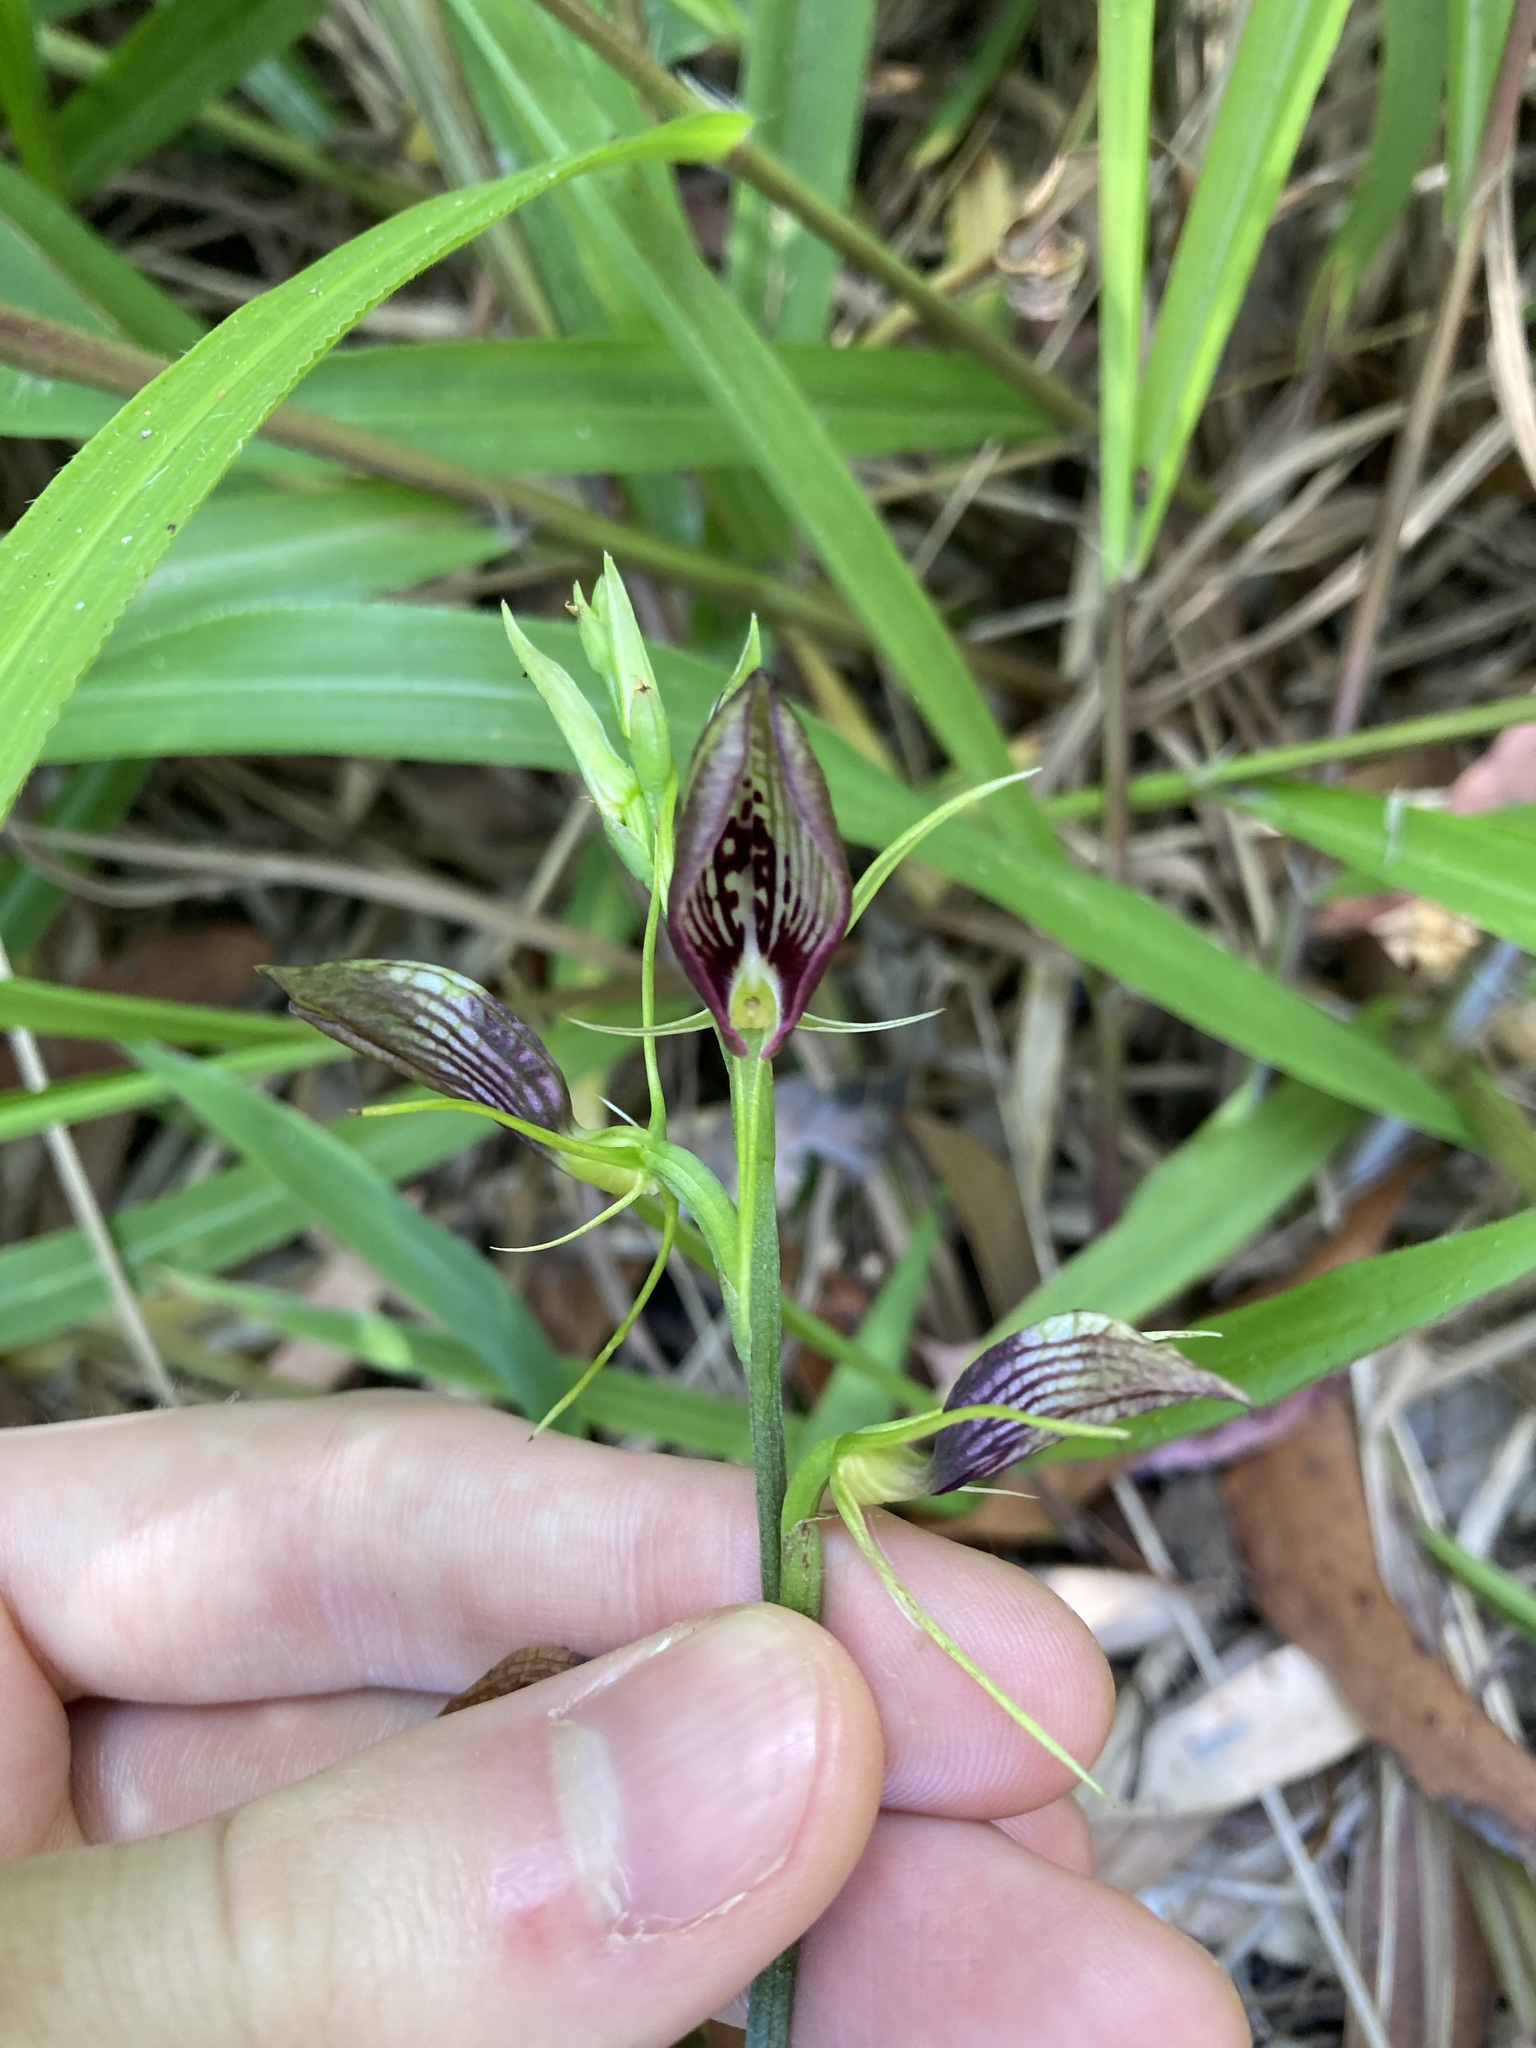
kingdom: Plantae
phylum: Tracheophyta
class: Liliopsida
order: Asparagales
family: Orchidaceae
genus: Cryptostylis
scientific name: Cryptostylis erecta
